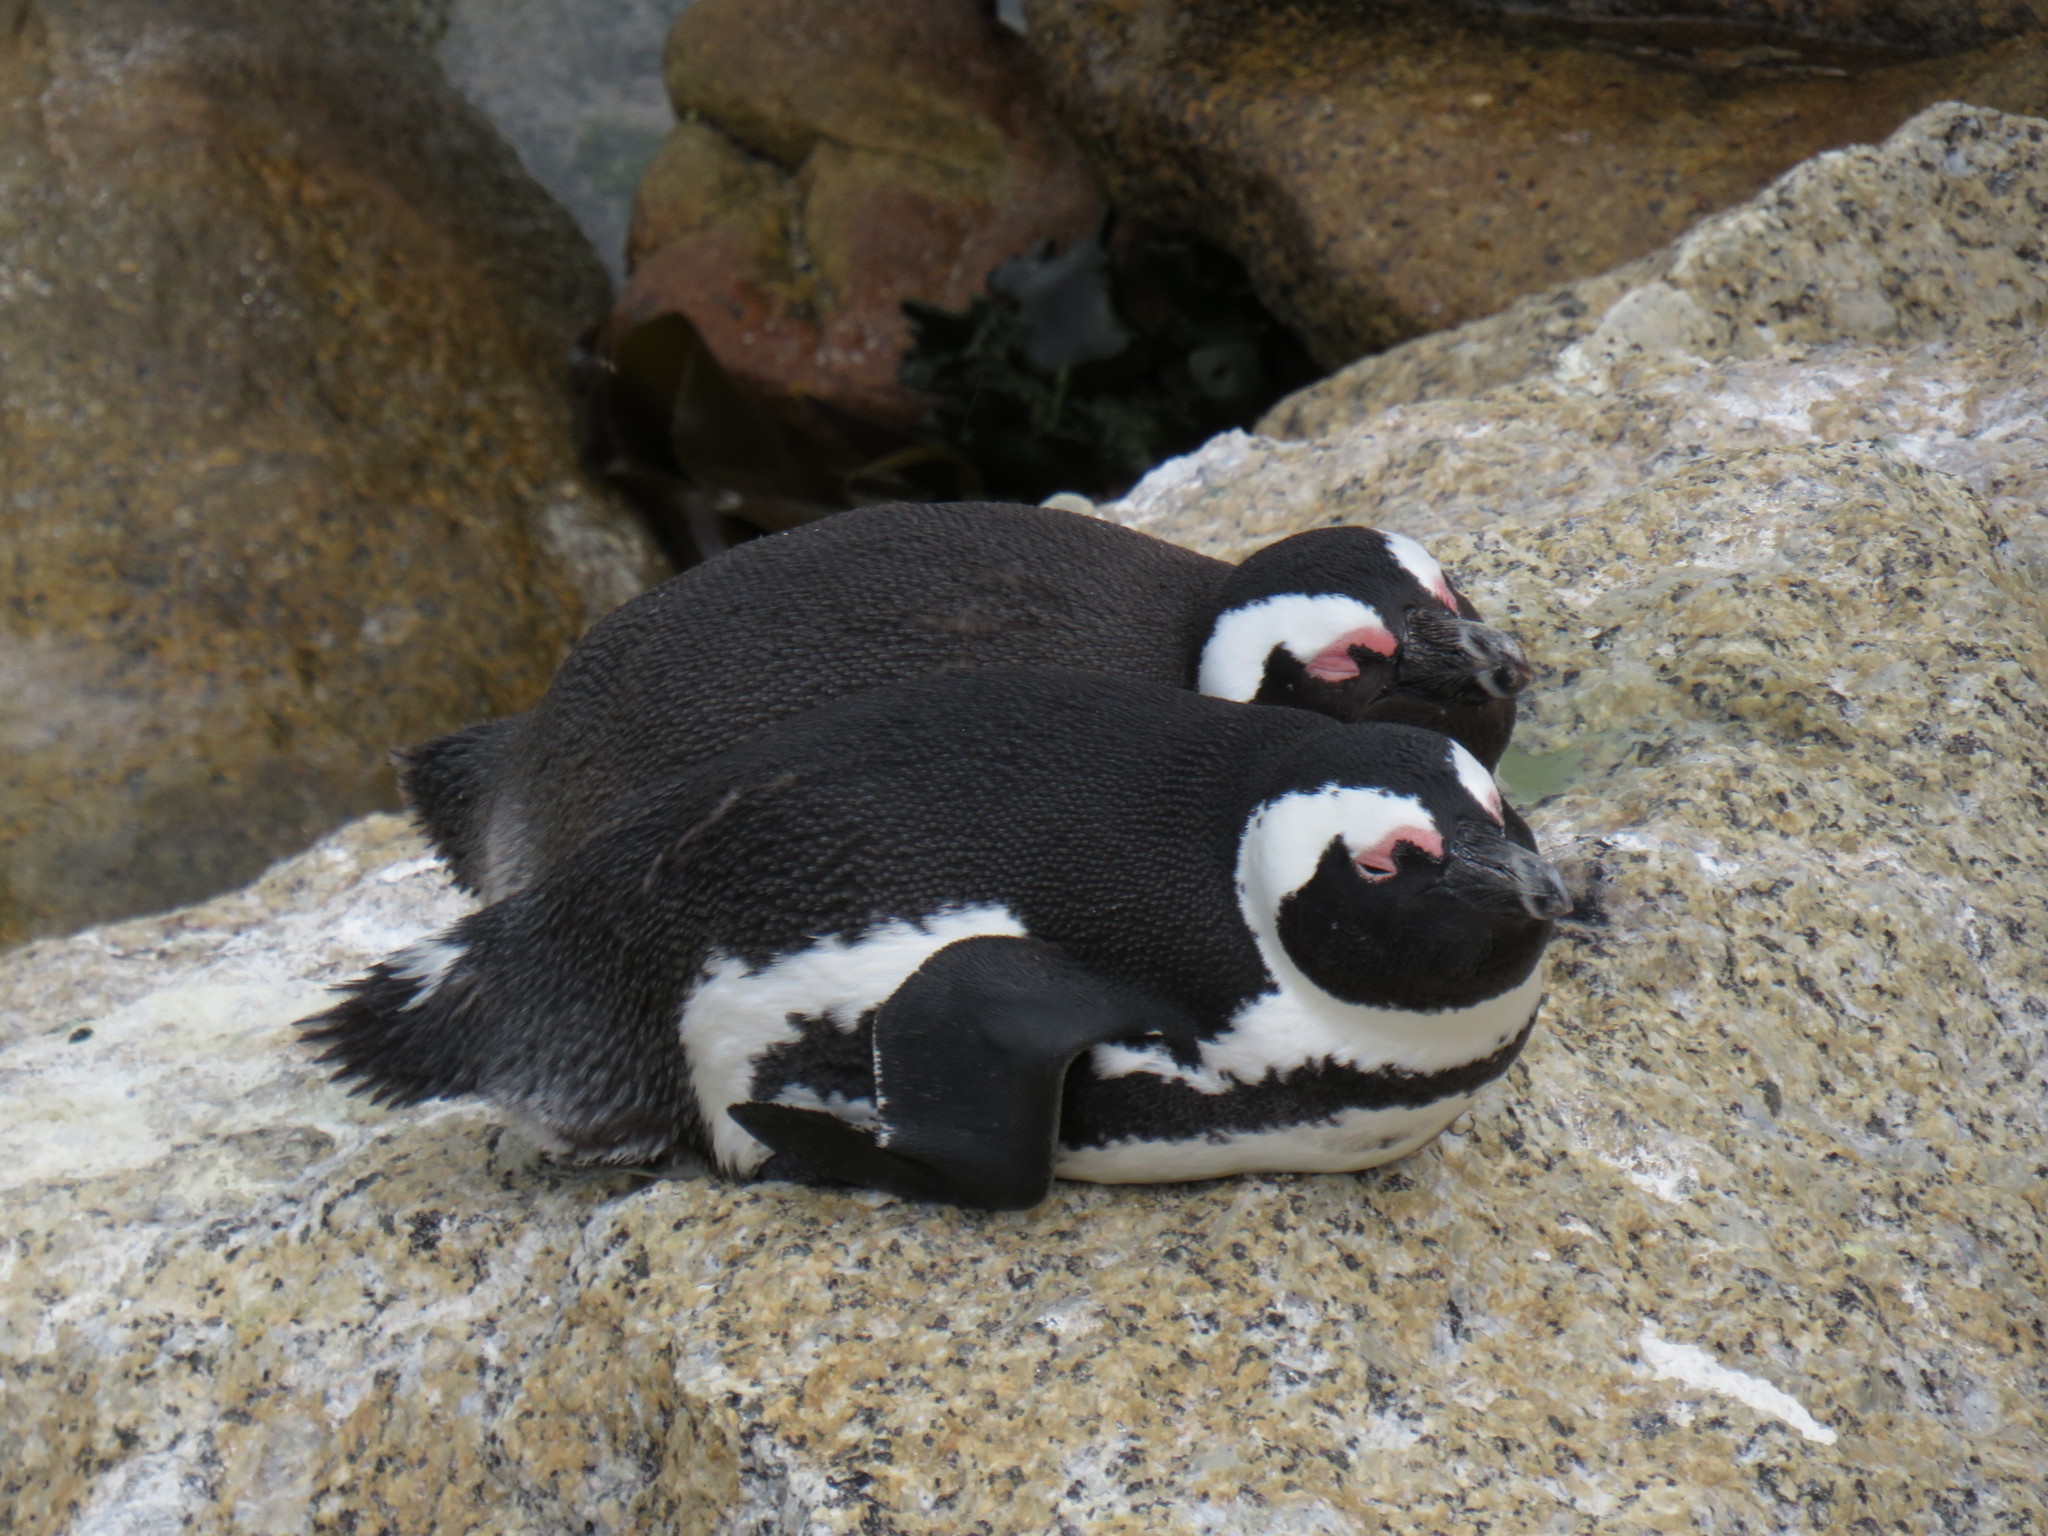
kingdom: Animalia
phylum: Chordata
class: Aves
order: Sphenisciformes
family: Spheniscidae
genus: Spheniscus
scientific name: Spheniscus demersus
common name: African penguin
